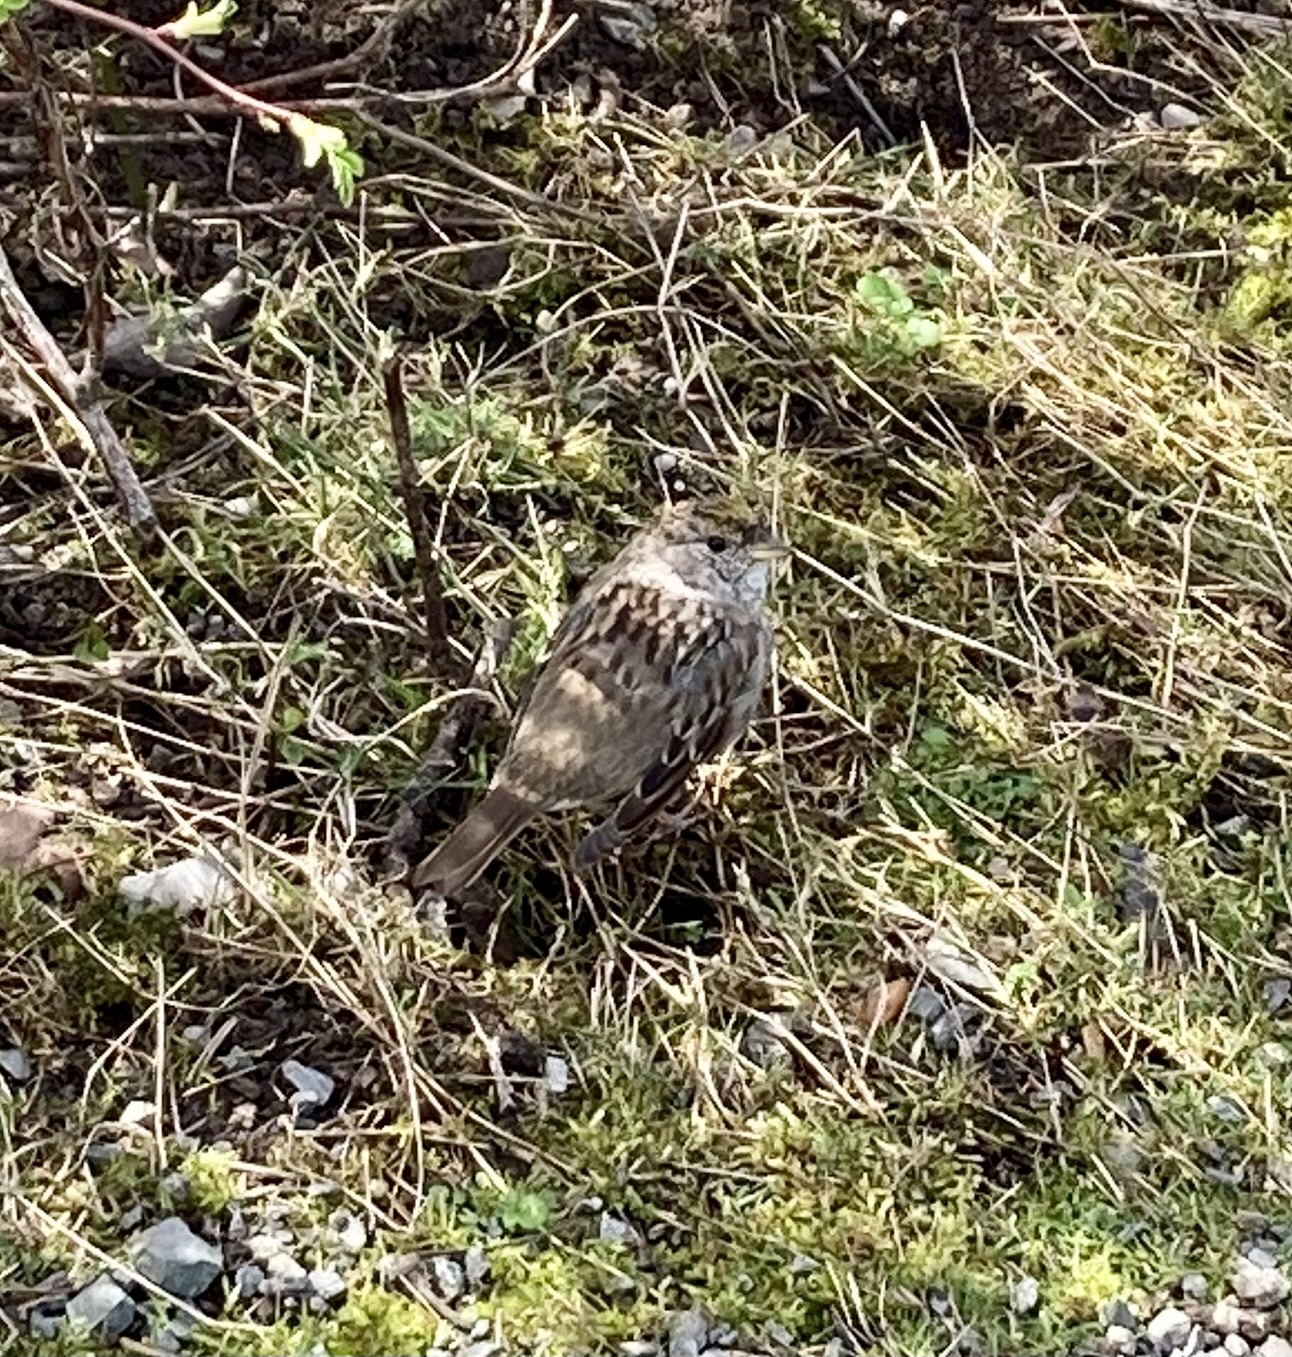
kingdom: Animalia
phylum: Chordata
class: Aves
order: Passeriformes
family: Passerellidae
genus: Zonotrichia
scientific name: Zonotrichia atricapilla
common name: Golden-crowned sparrow
